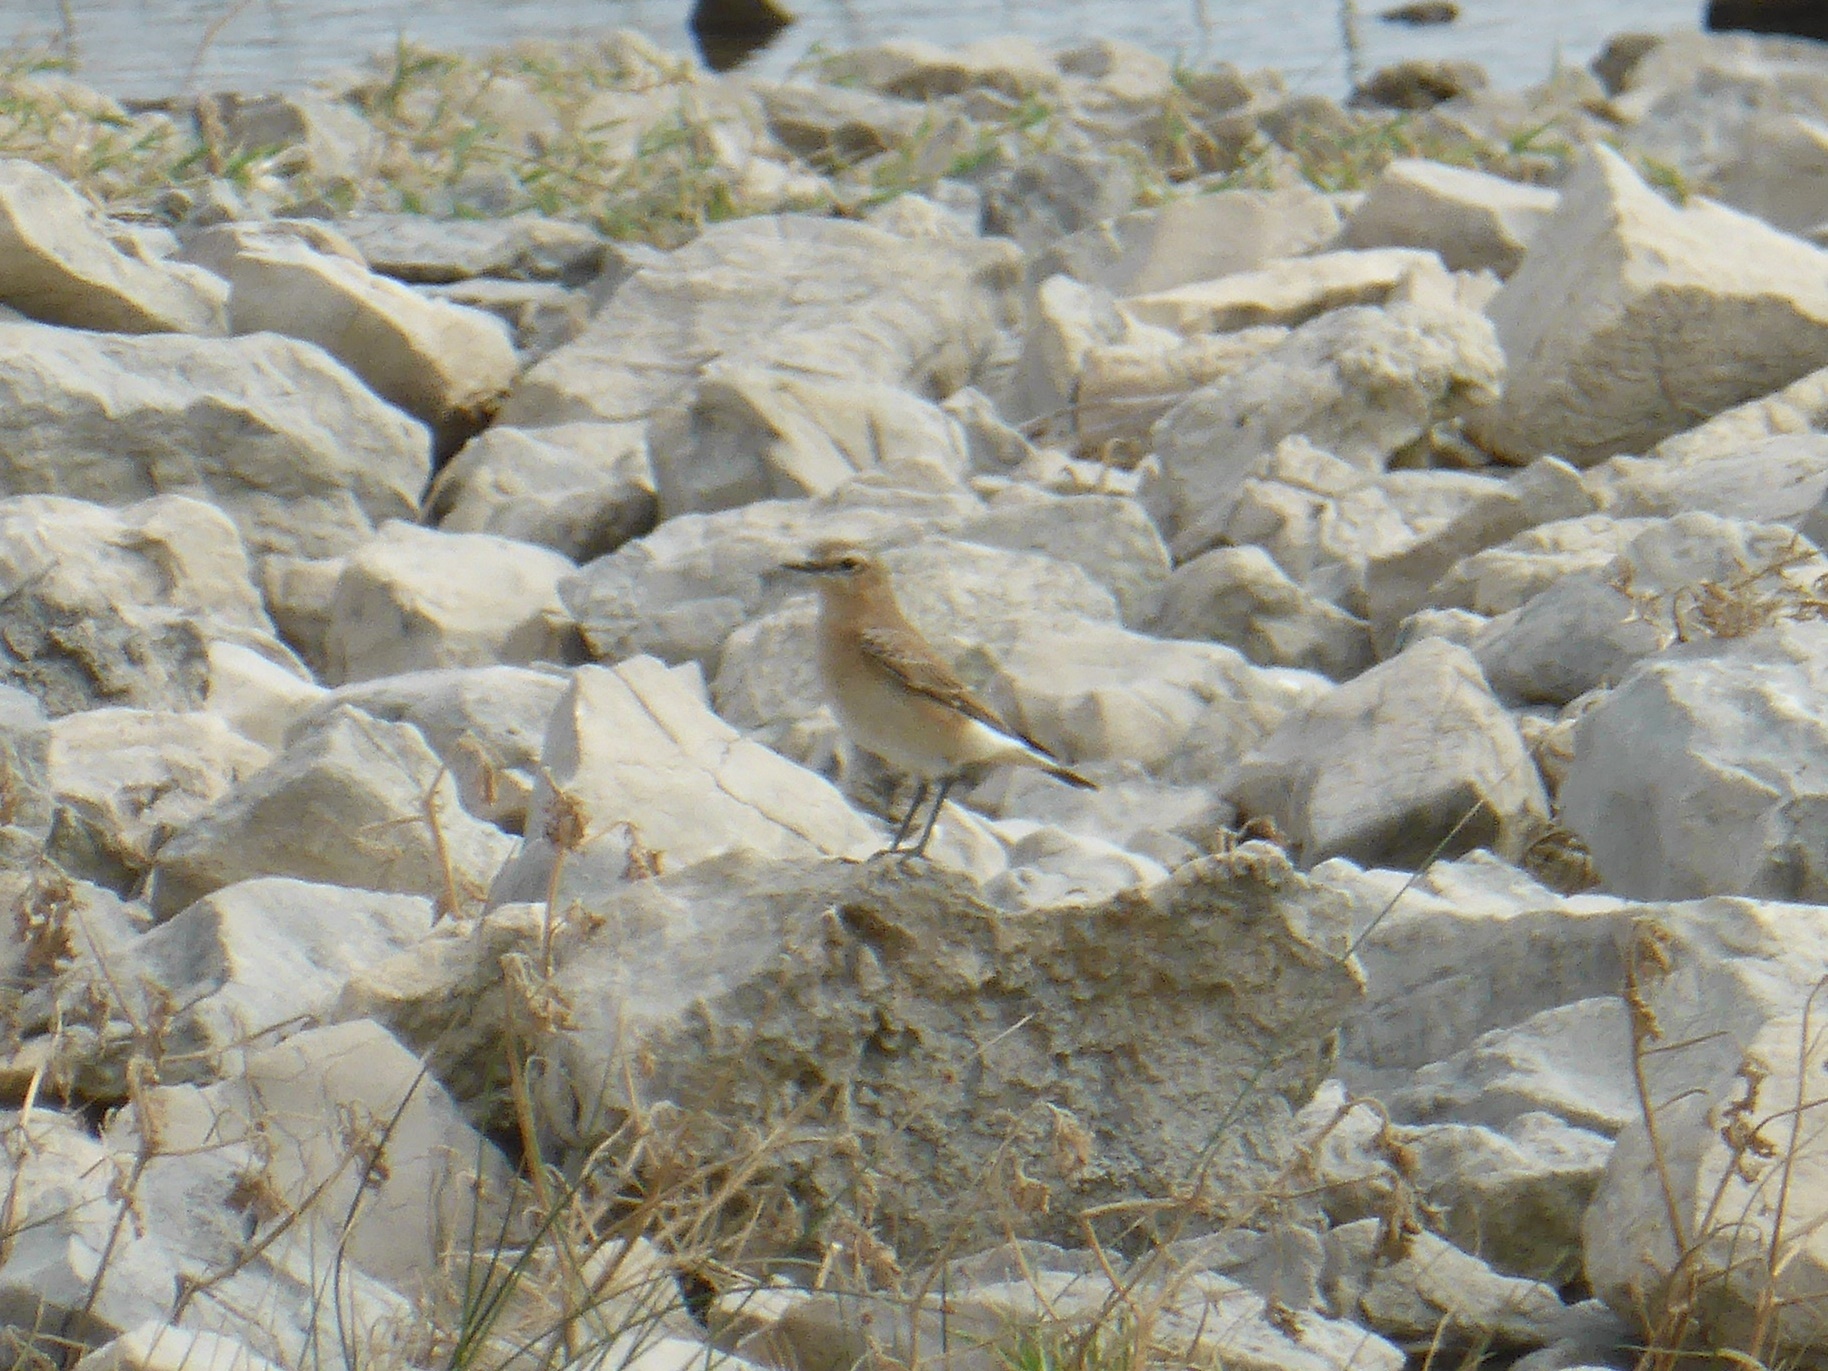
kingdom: Animalia
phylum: Chordata
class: Aves
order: Passeriformes
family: Muscicapidae
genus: Oenanthe
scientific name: Oenanthe oenanthe
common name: Northern wheatear
